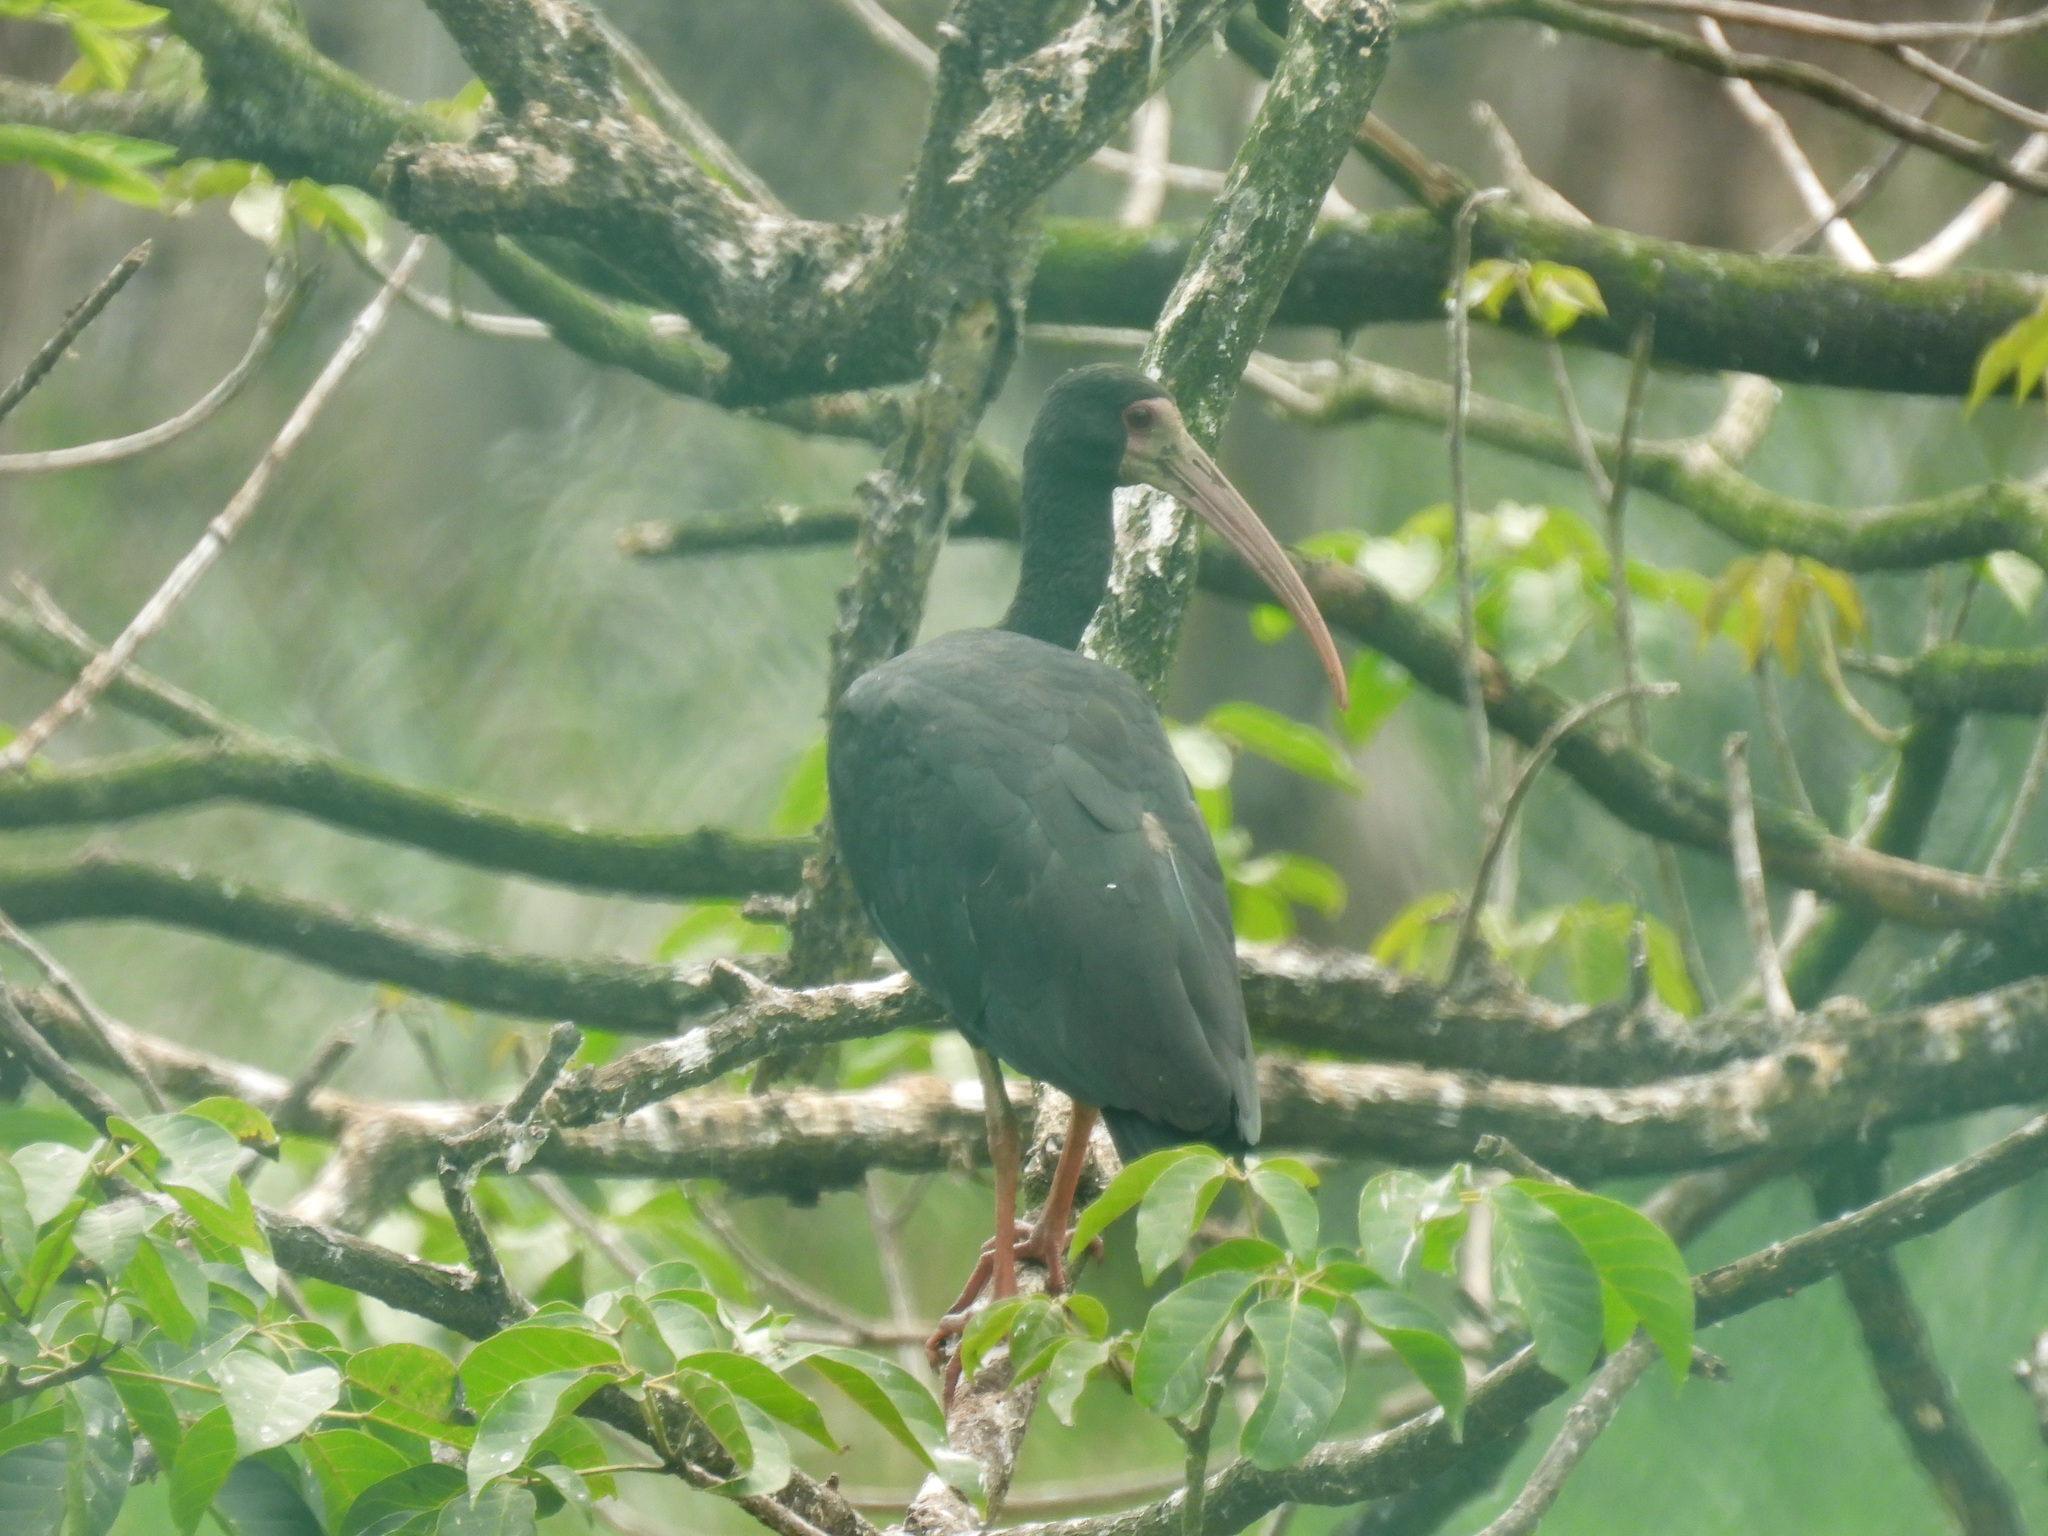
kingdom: Animalia
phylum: Chordata
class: Aves
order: Pelecaniformes
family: Threskiornithidae
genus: Phimosus
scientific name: Phimosus infuscatus
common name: Bare-faced ibis
